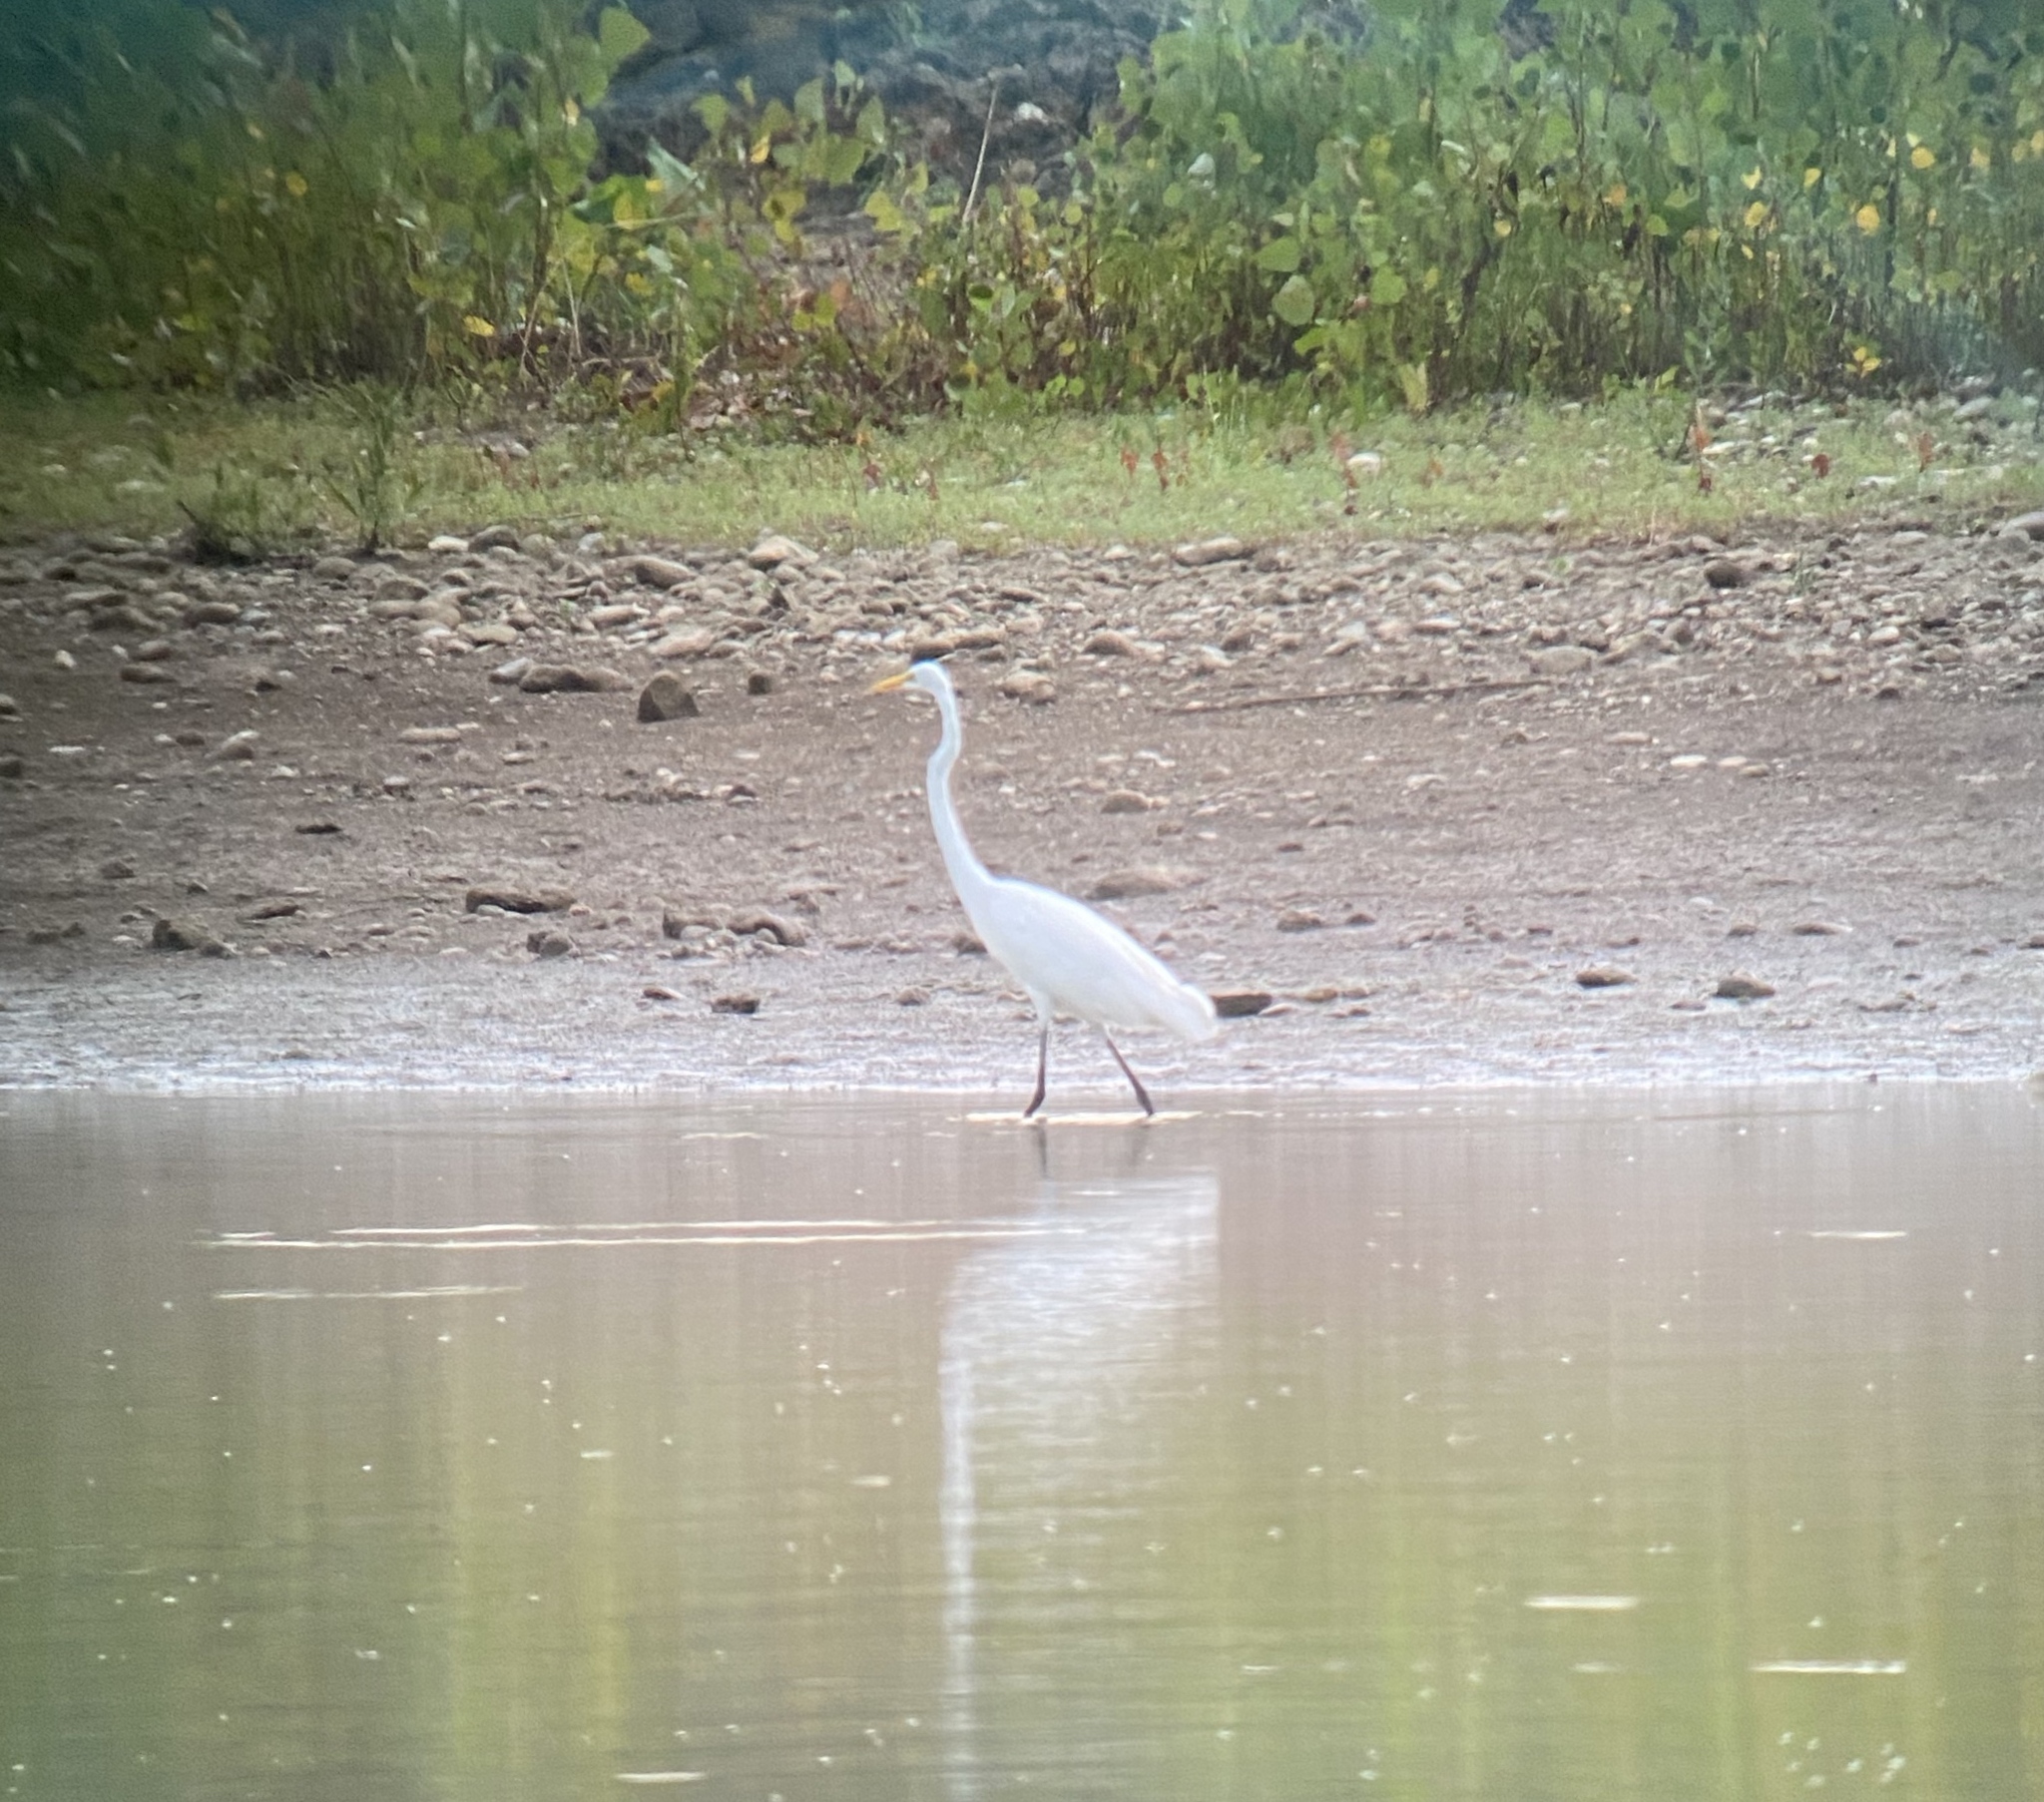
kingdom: Animalia
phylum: Chordata
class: Aves
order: Pelecaniformes
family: Ardeidae
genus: Ardea
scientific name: Ardea alba
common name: Great egret
